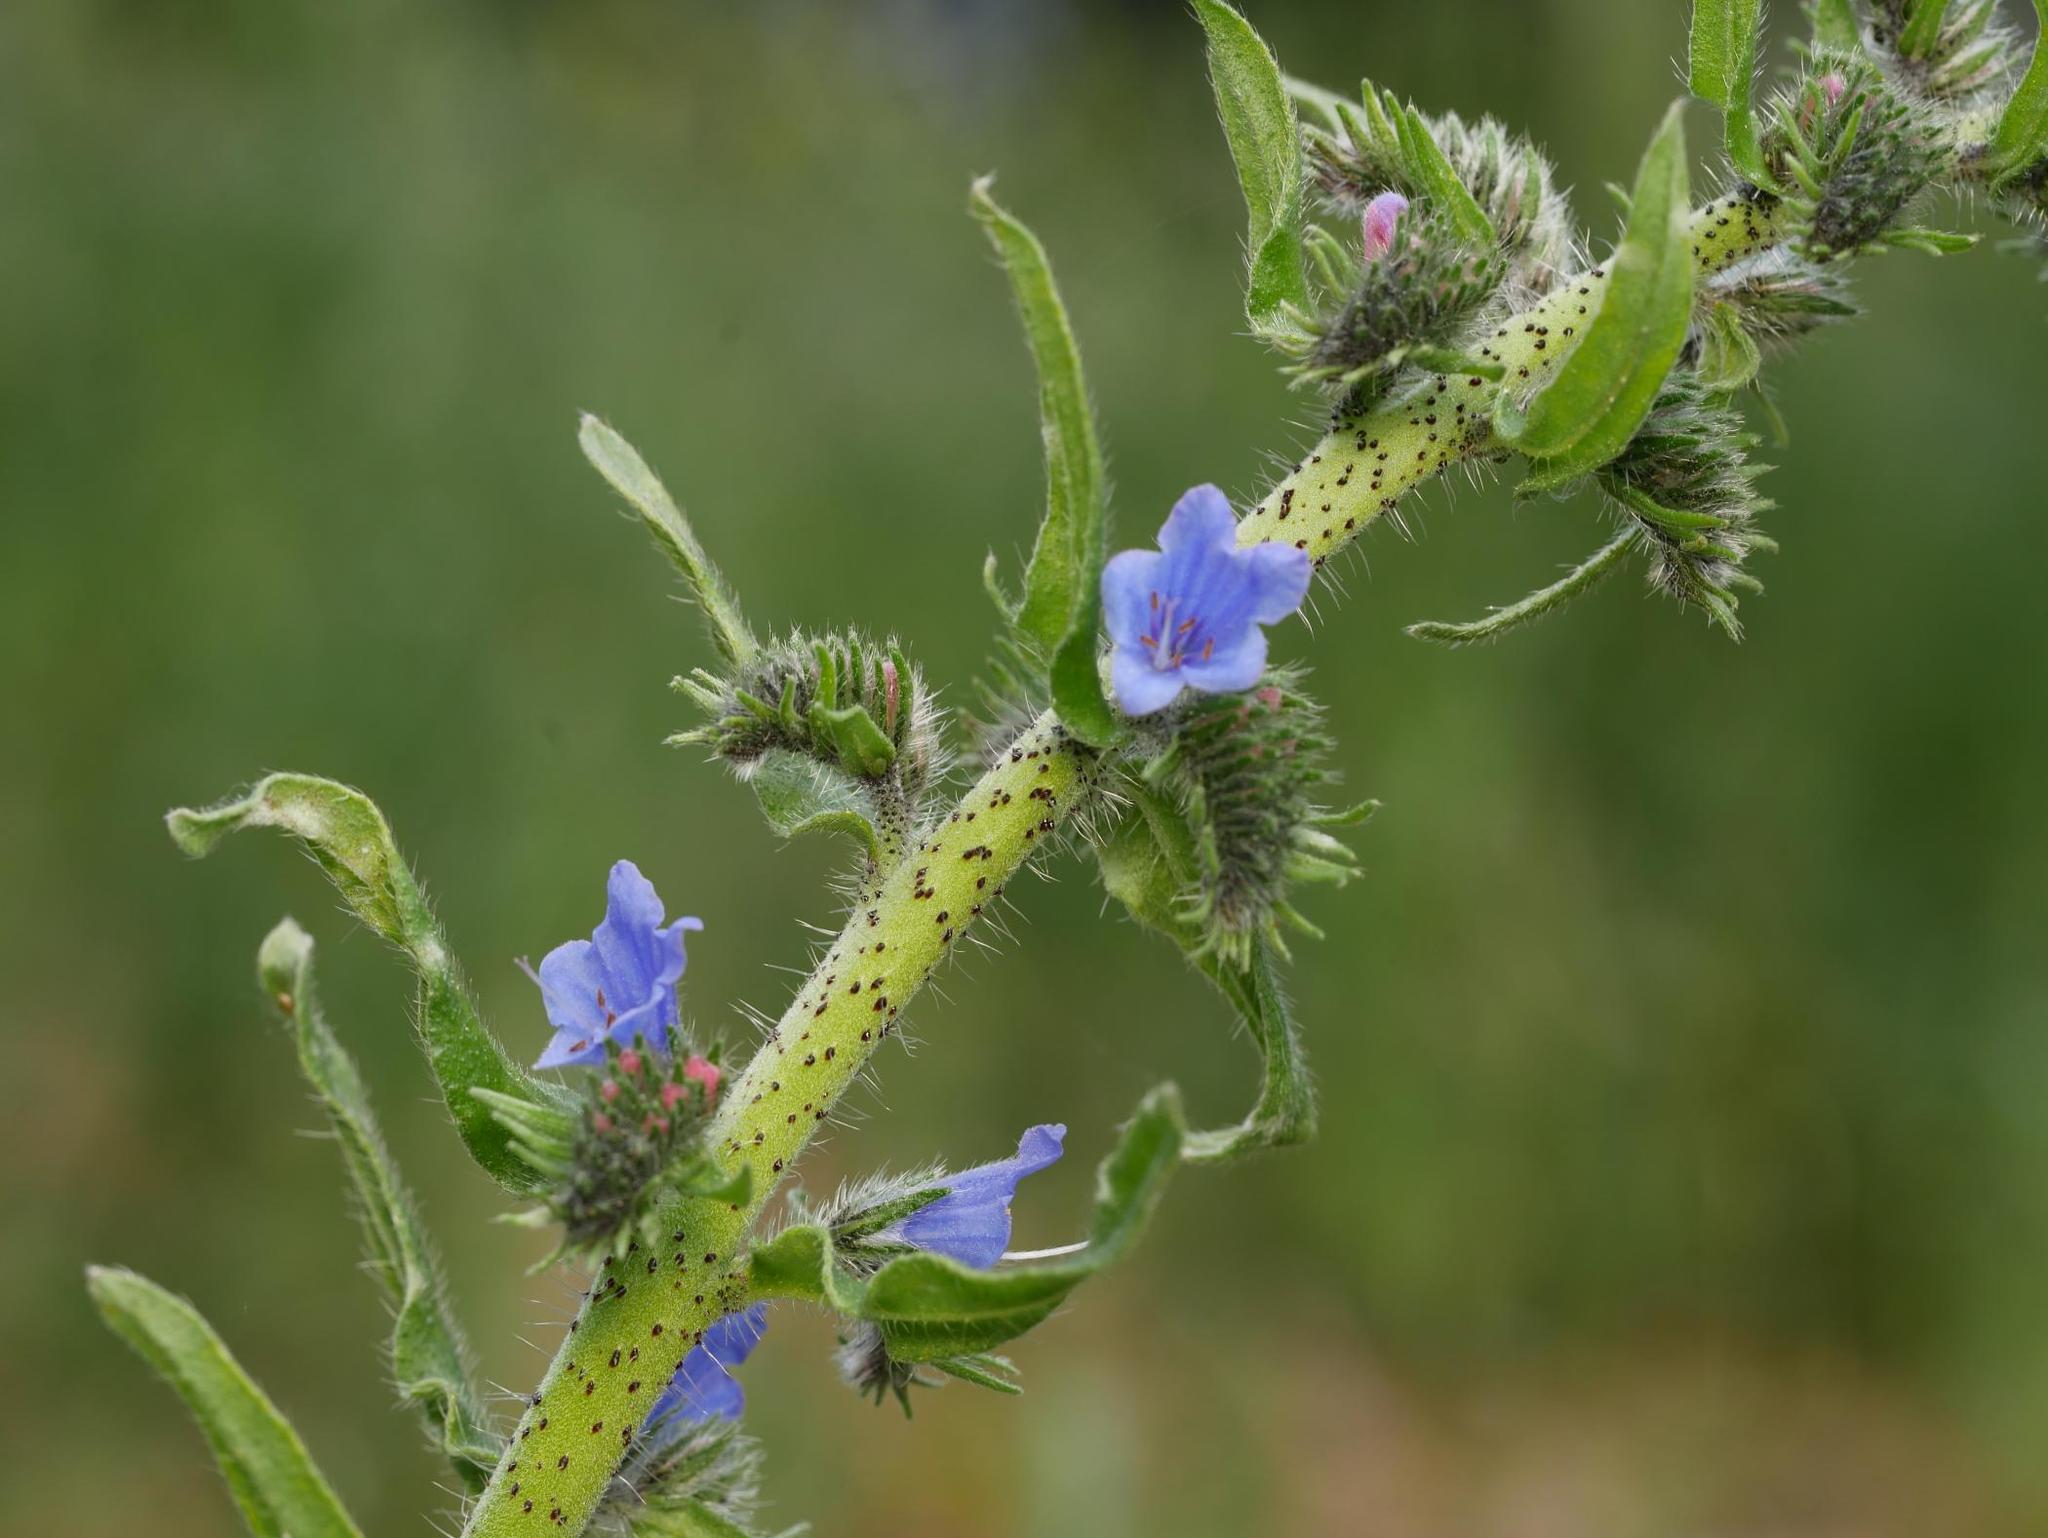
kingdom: Plantae
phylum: Tracheophyta
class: Magnoliopsida
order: Boraginales
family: Boraginaceae
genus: Echium
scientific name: Echium vulgare
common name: Common viper's bugloss
